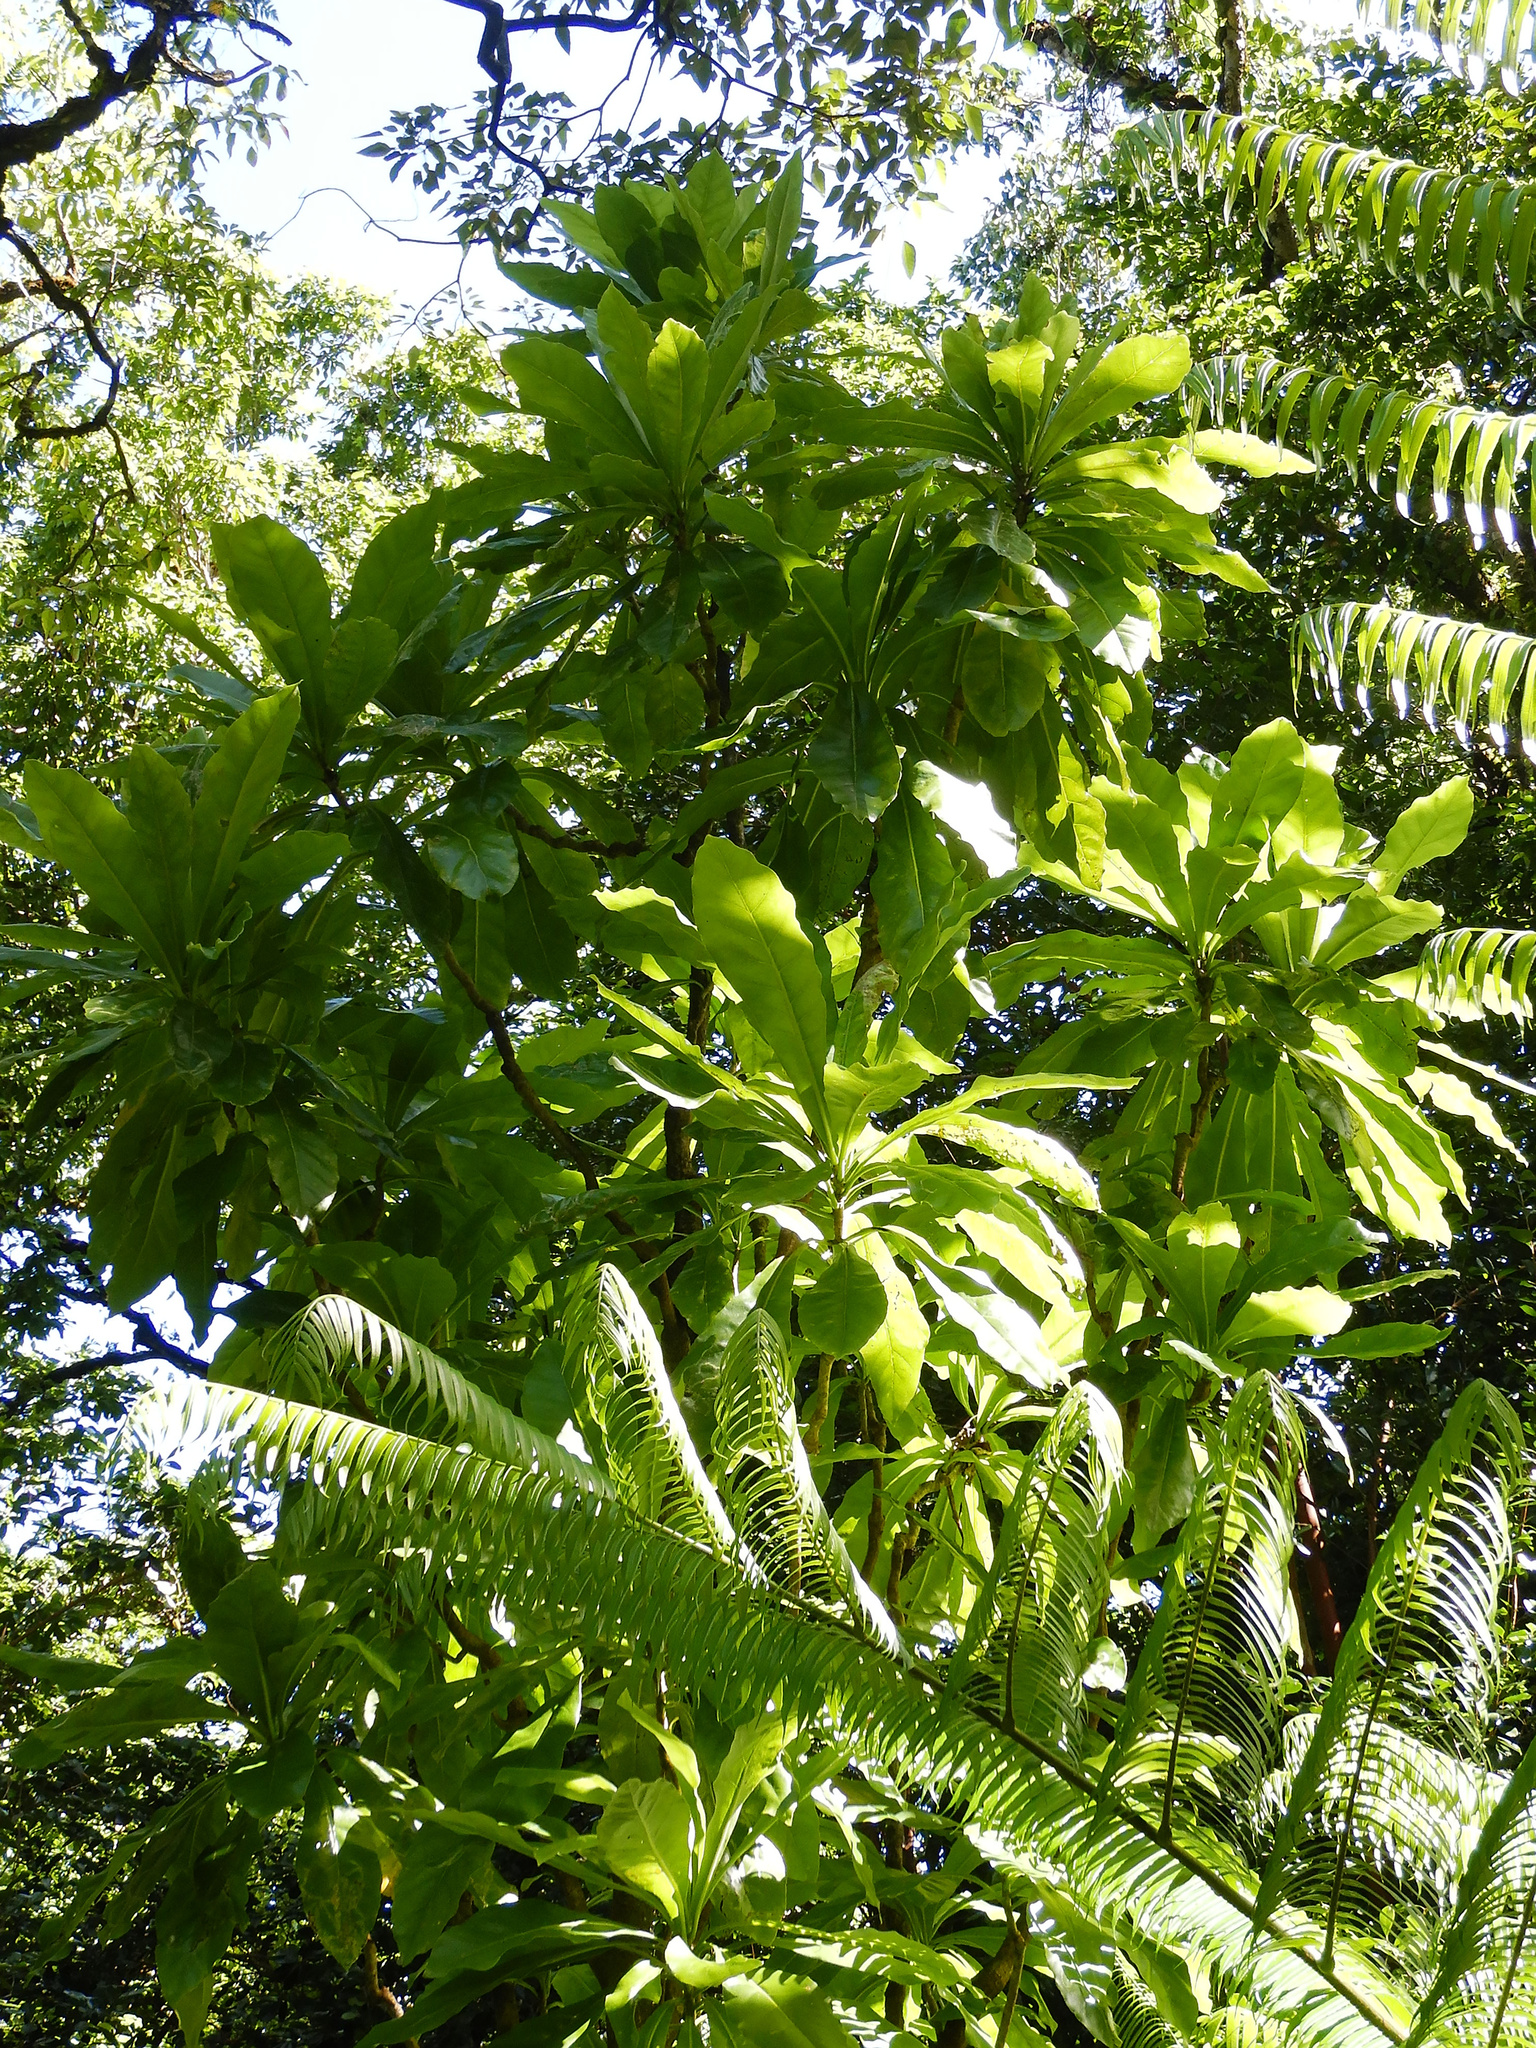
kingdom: Plantae
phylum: Tracheophyta
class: Magnoliopsida
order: Apiales
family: Araliaceae
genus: Meryta
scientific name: Meryta pauciflora
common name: Rarotonga meryta
